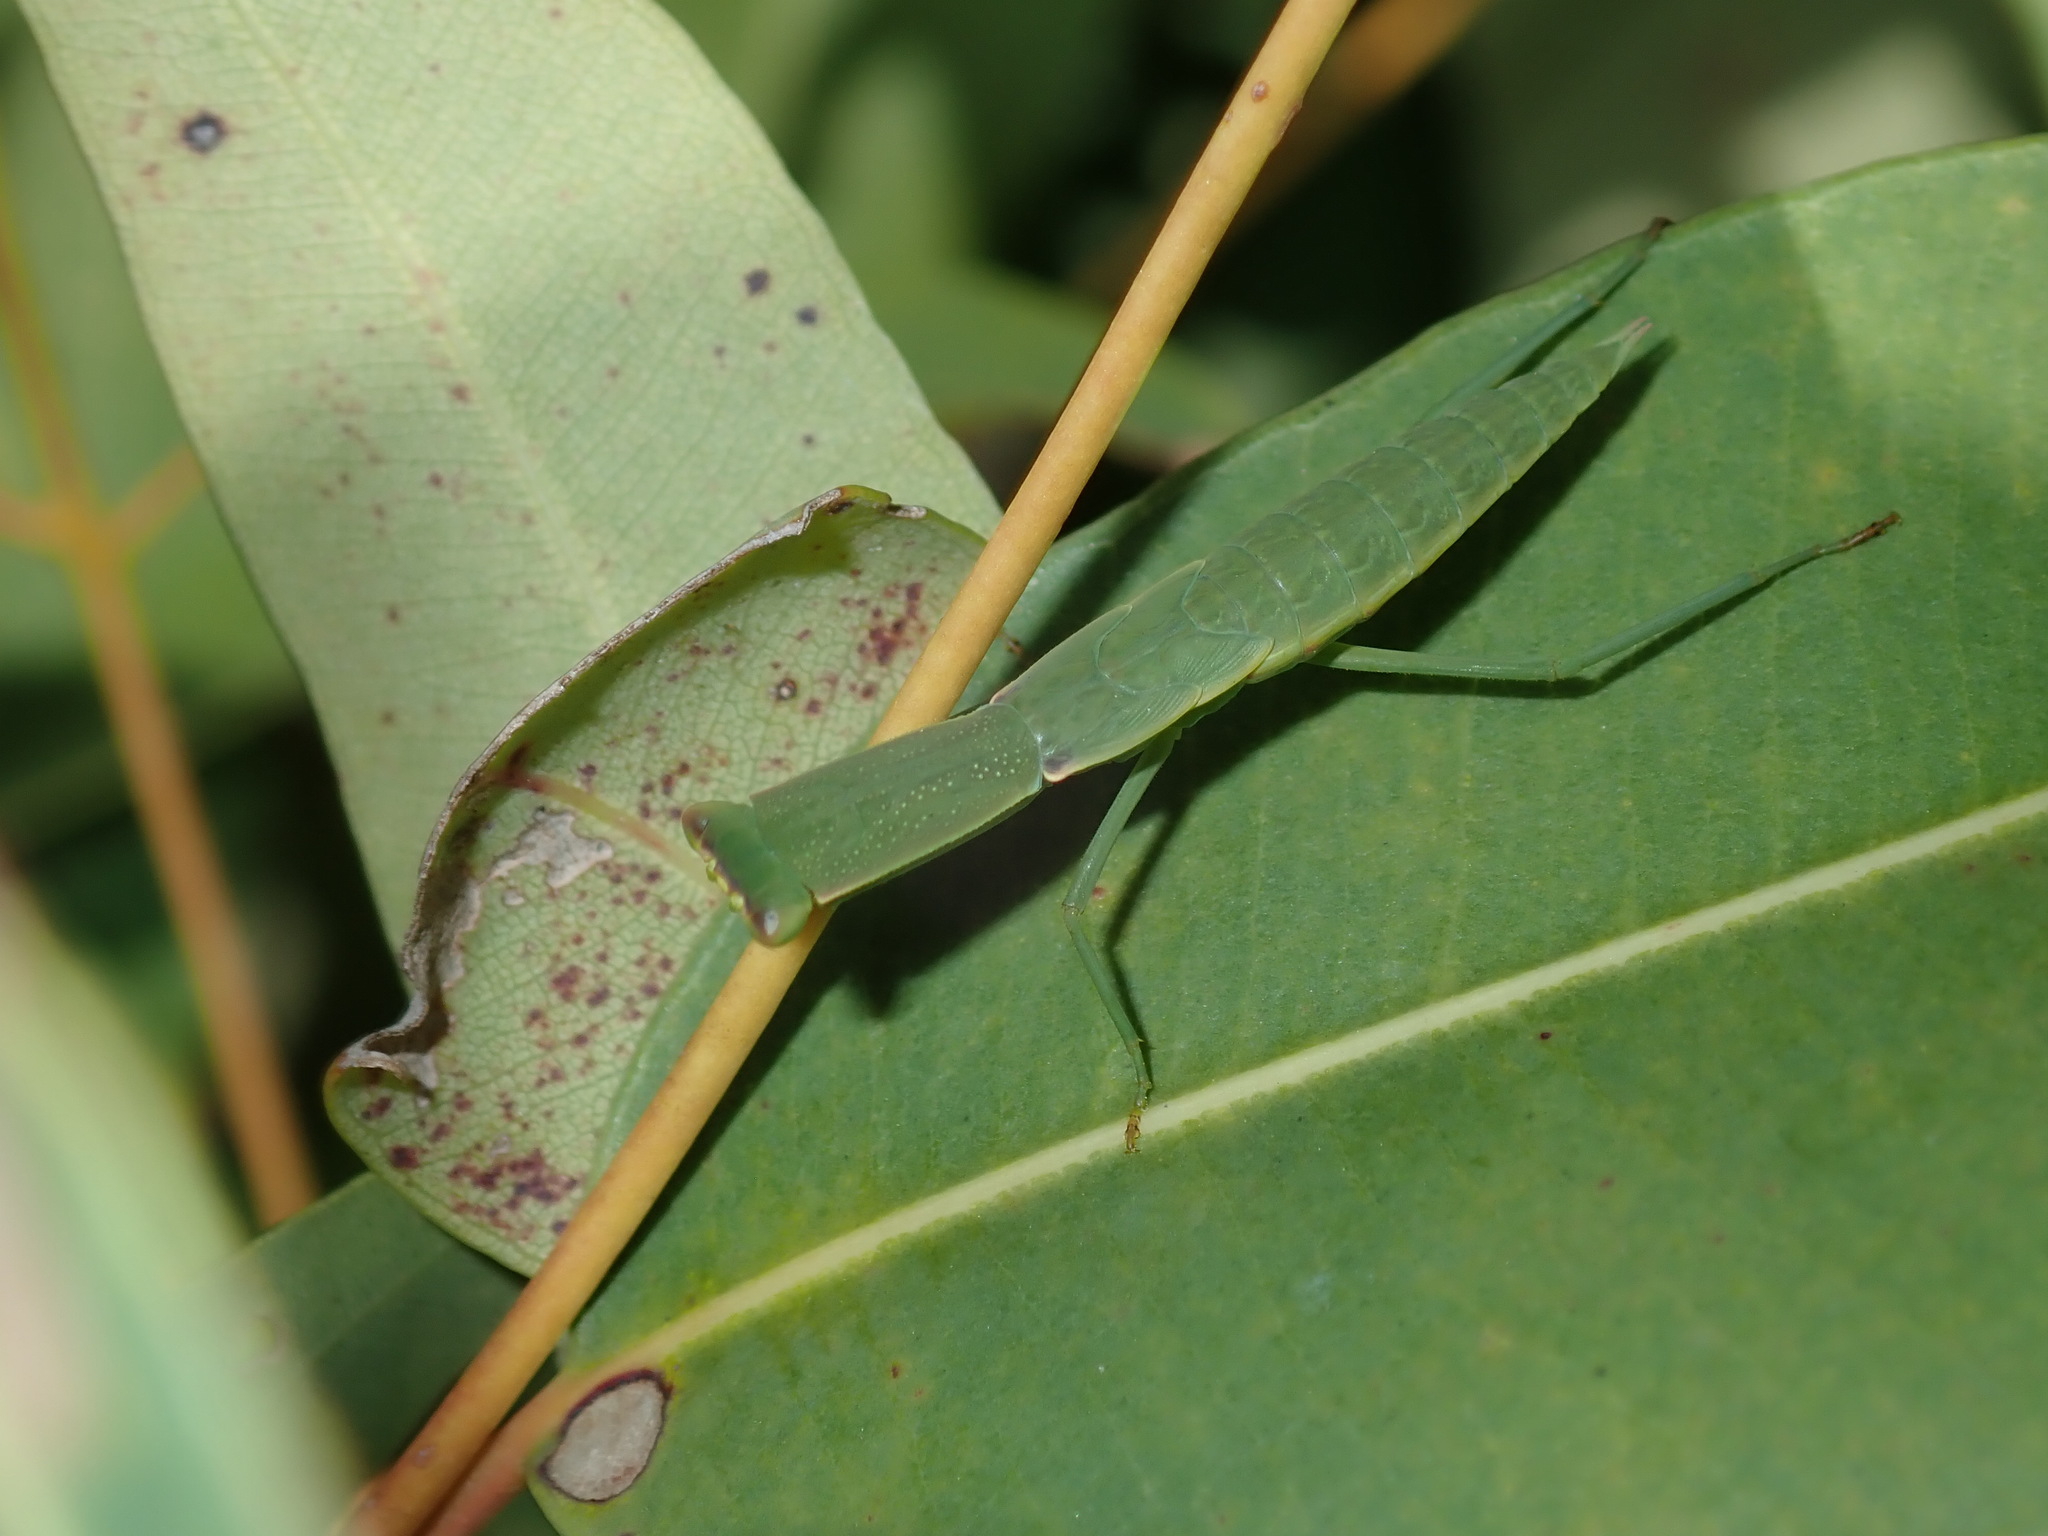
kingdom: Animalia
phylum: Arthropoda
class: Insecta
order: Mantodea
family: Mantidae
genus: Orthodera
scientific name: Orthodera ministralis
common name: Mantis
